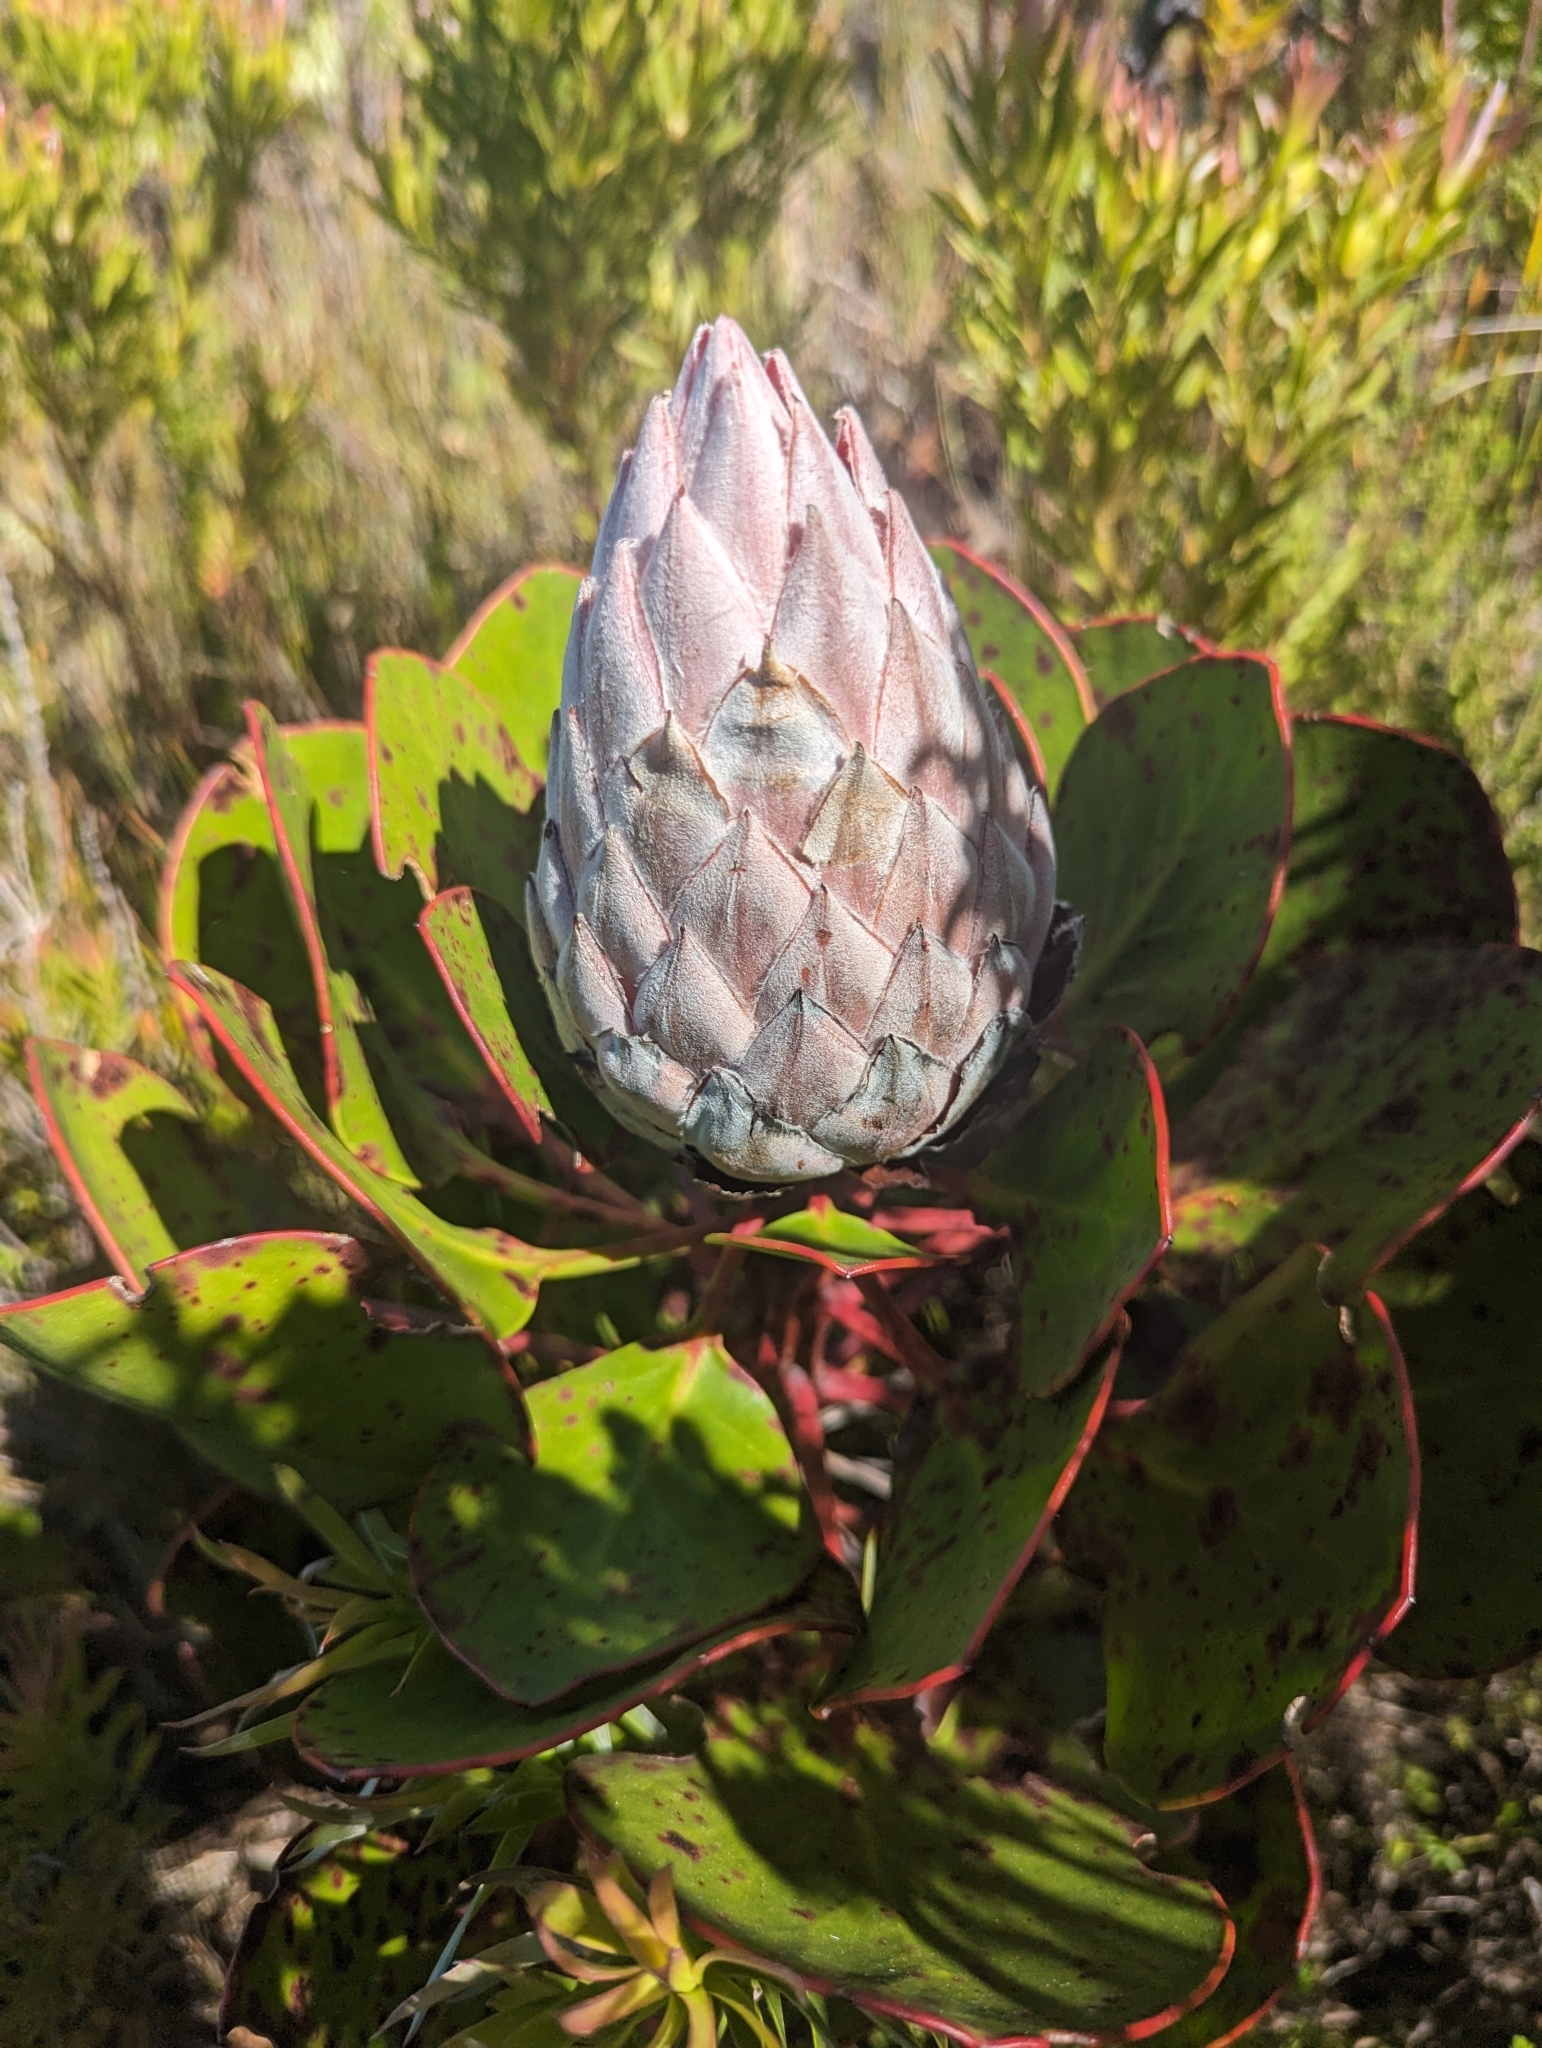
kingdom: Plantae
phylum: Tracheophyta
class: Magnoliopsida
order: Proteales
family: Proteaceae
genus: Protea
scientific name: Protea cynaroides
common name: King protea
